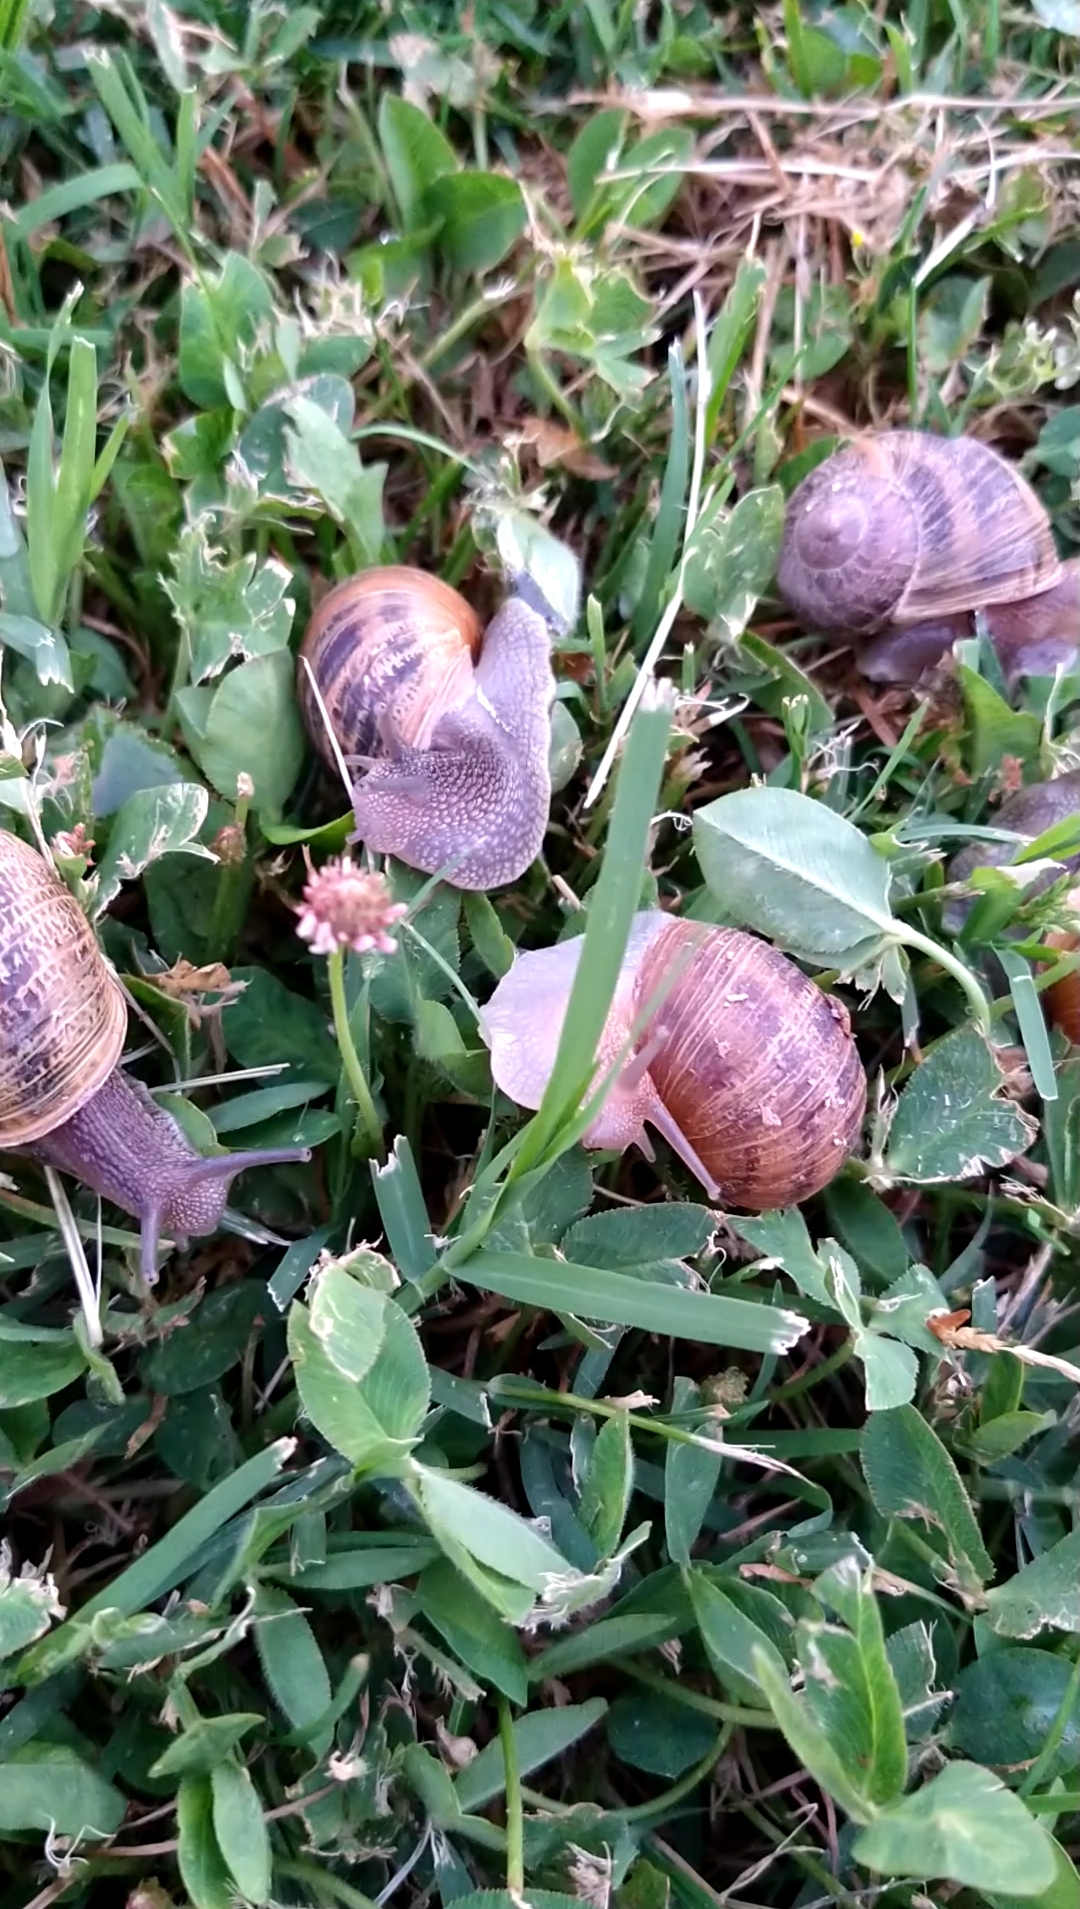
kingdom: Animalia
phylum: Mollusca
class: Gastropoda
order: Stylommatophora
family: Helicidae
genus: Cornu
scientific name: Cornu aspersum
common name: Brown garden snail
